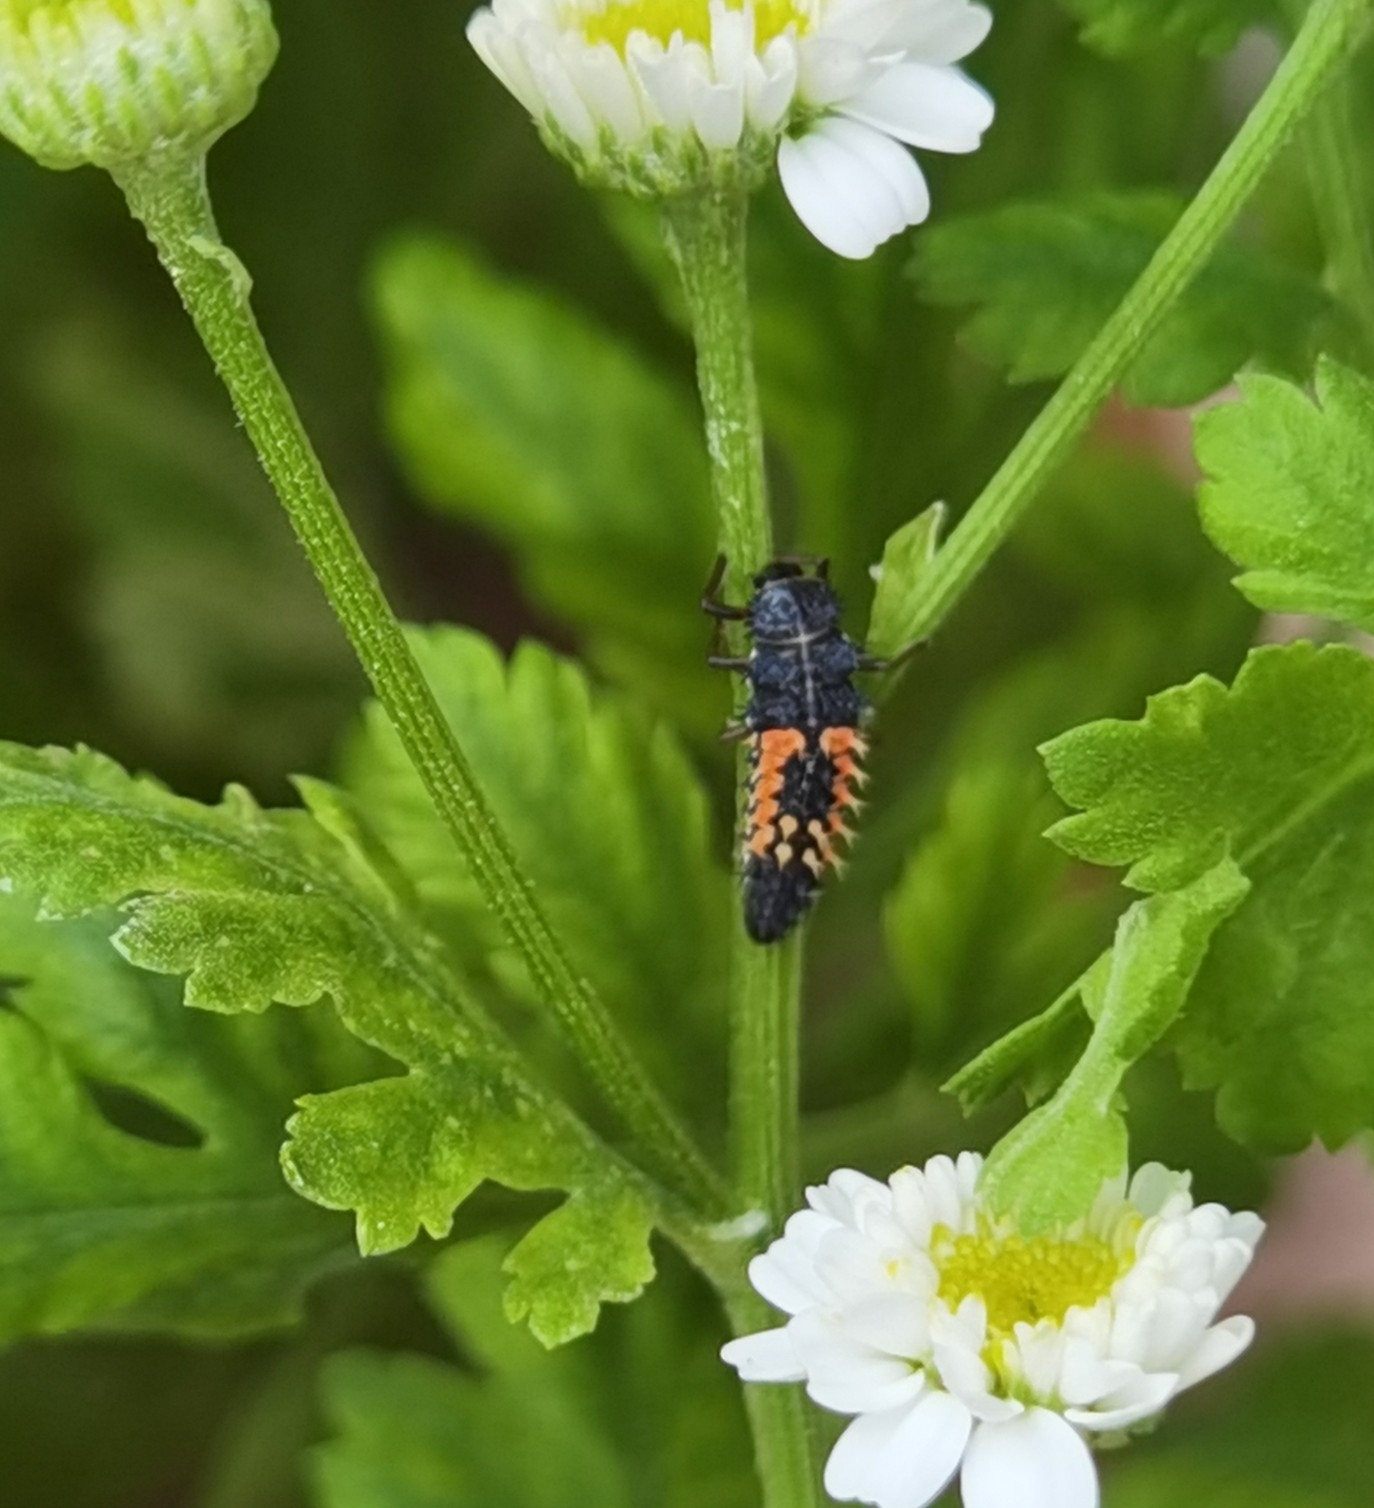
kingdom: Animalia
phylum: Arthropoda
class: Insecta
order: Coleoptera
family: Coccinellidae
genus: Harmonia
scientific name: Harmonia axyridis
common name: Harlequin ladybird
